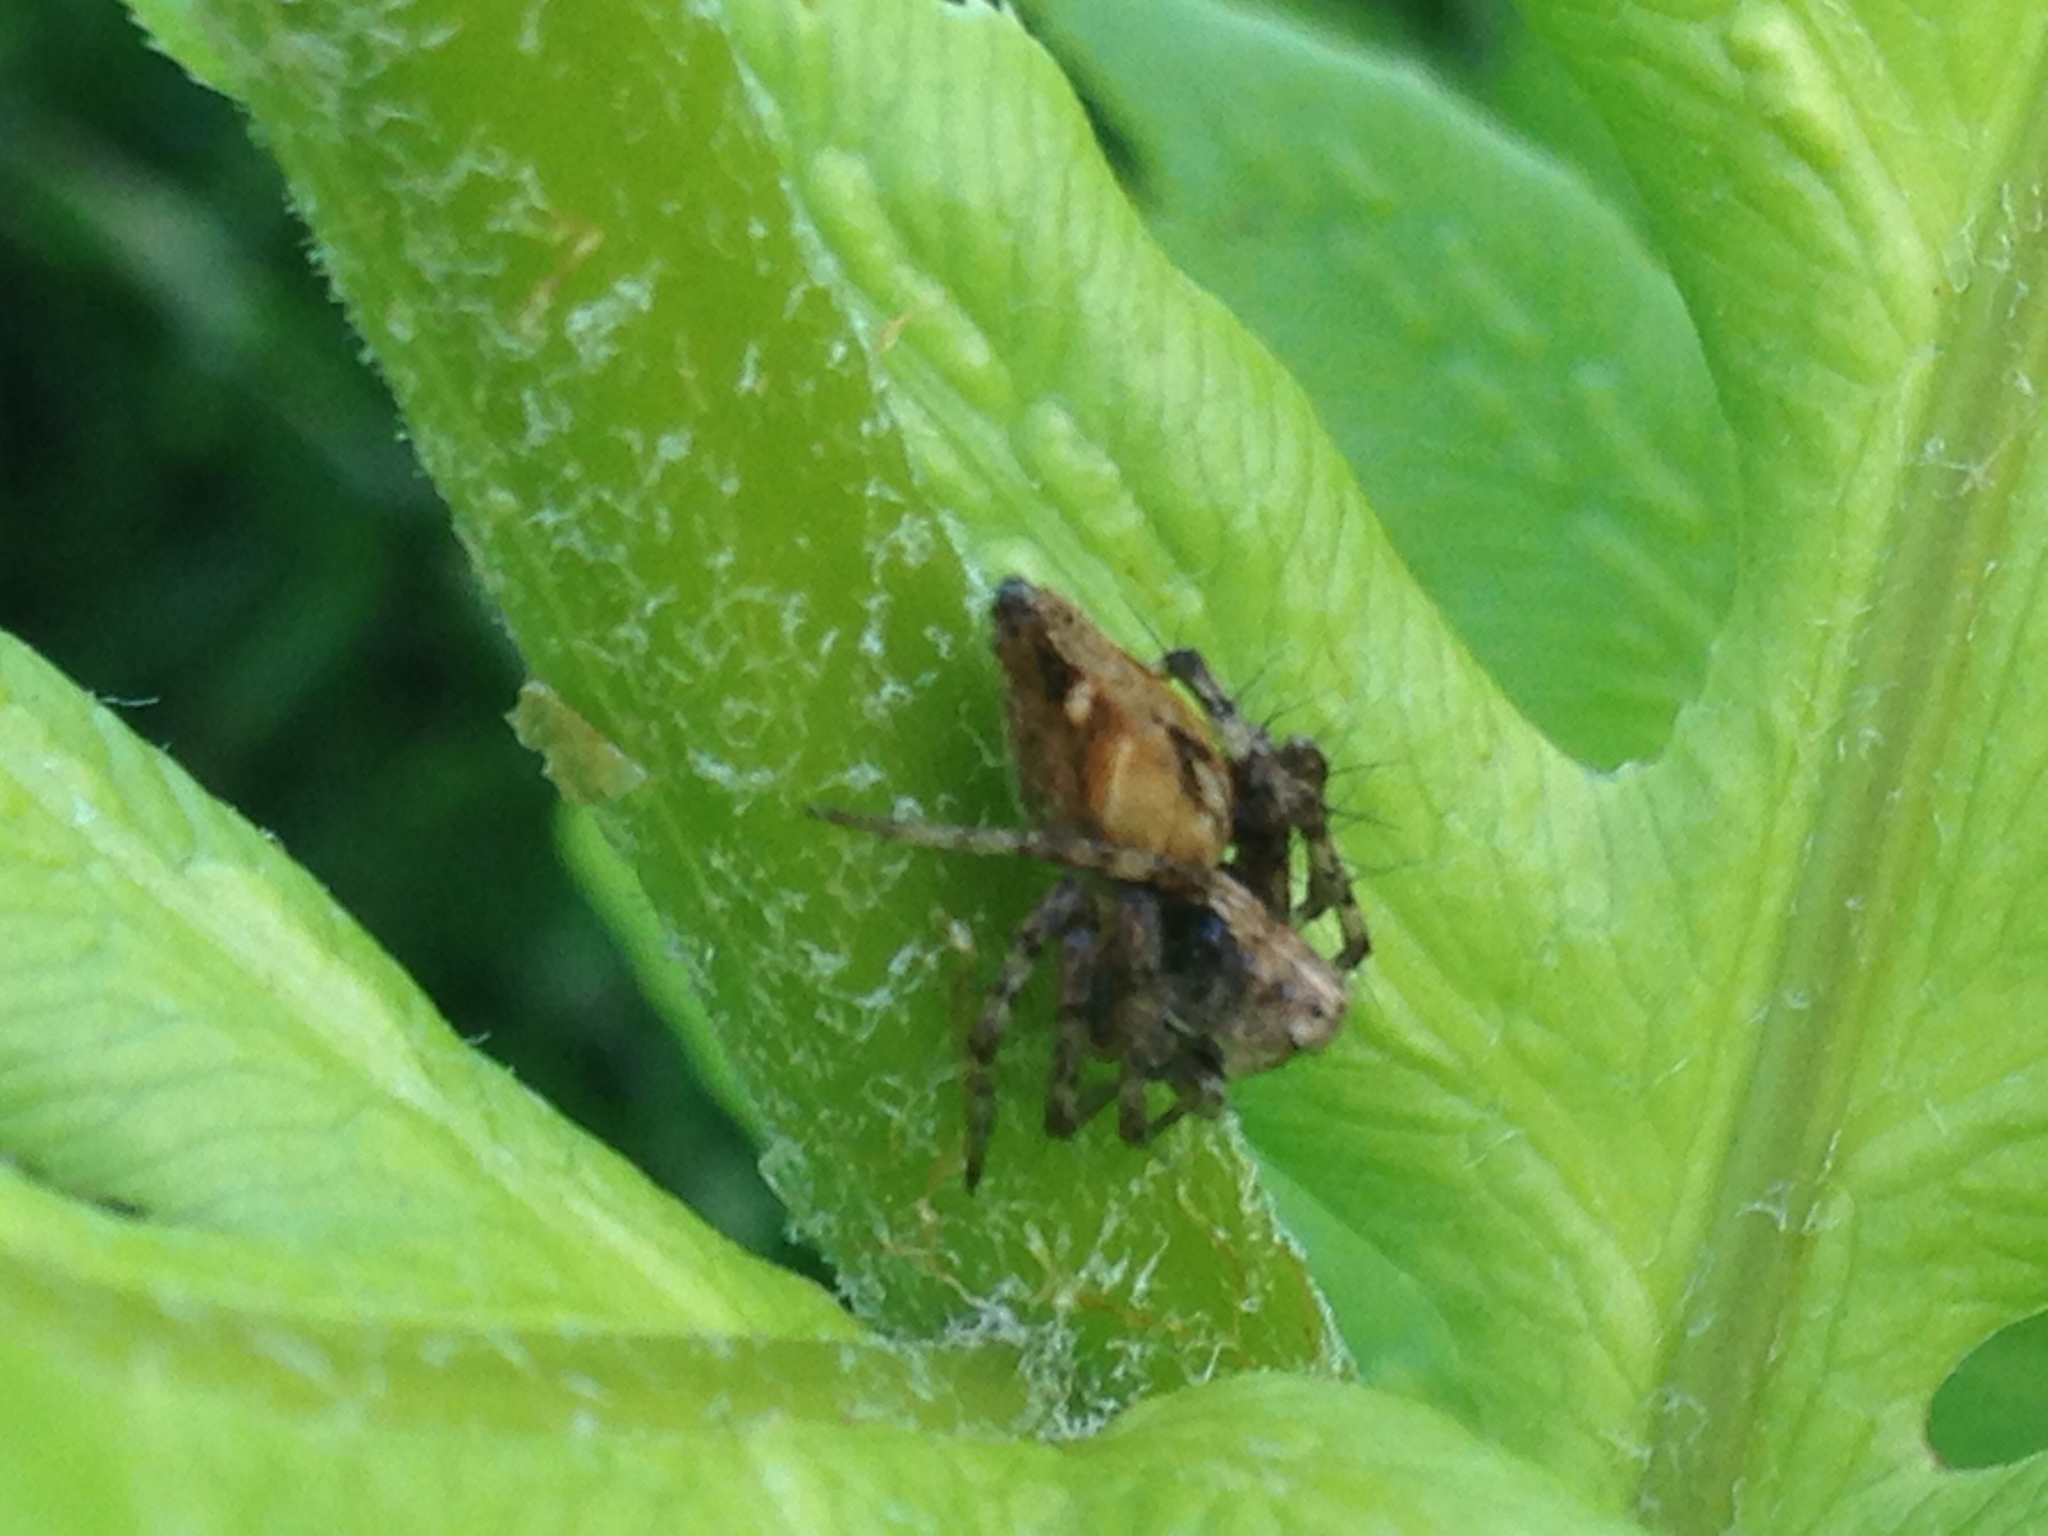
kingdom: Animalia
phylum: Arthropoda
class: Arachnida
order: Araneae
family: Oxyopidae
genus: Oxyopes
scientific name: Oxyopes scalaris
